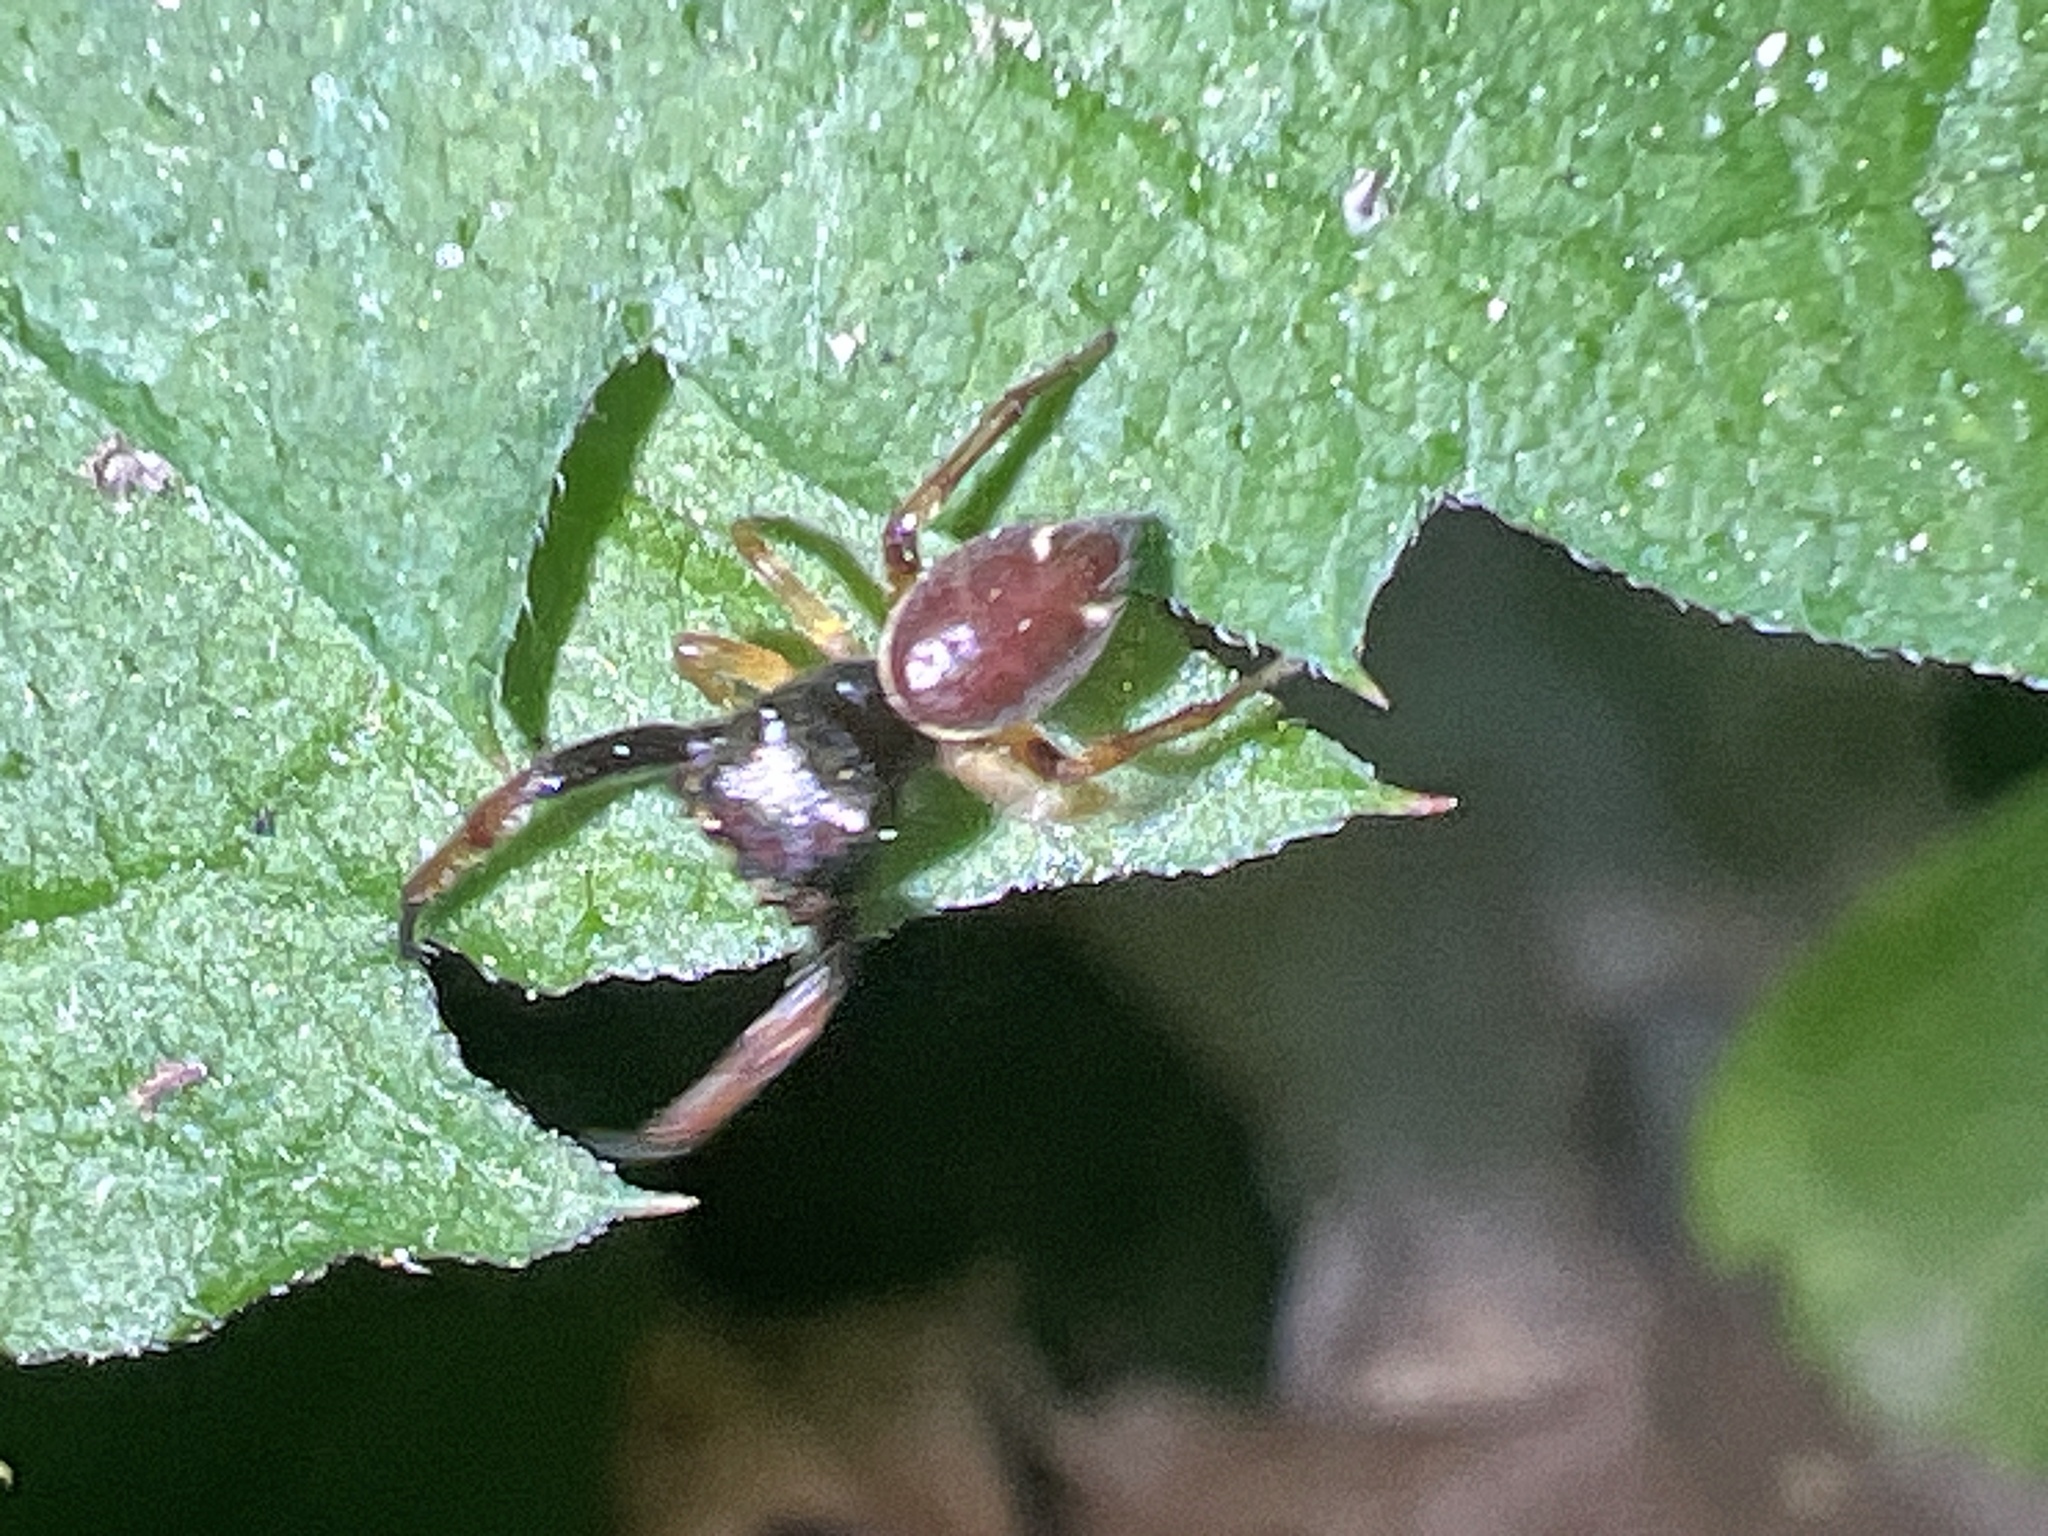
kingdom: Animalia
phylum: Arthropoda
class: Arachnida
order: Araneae
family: Salticidae
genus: Zygoballus
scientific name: Zygoballus rufipes
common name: Jumping spiders
